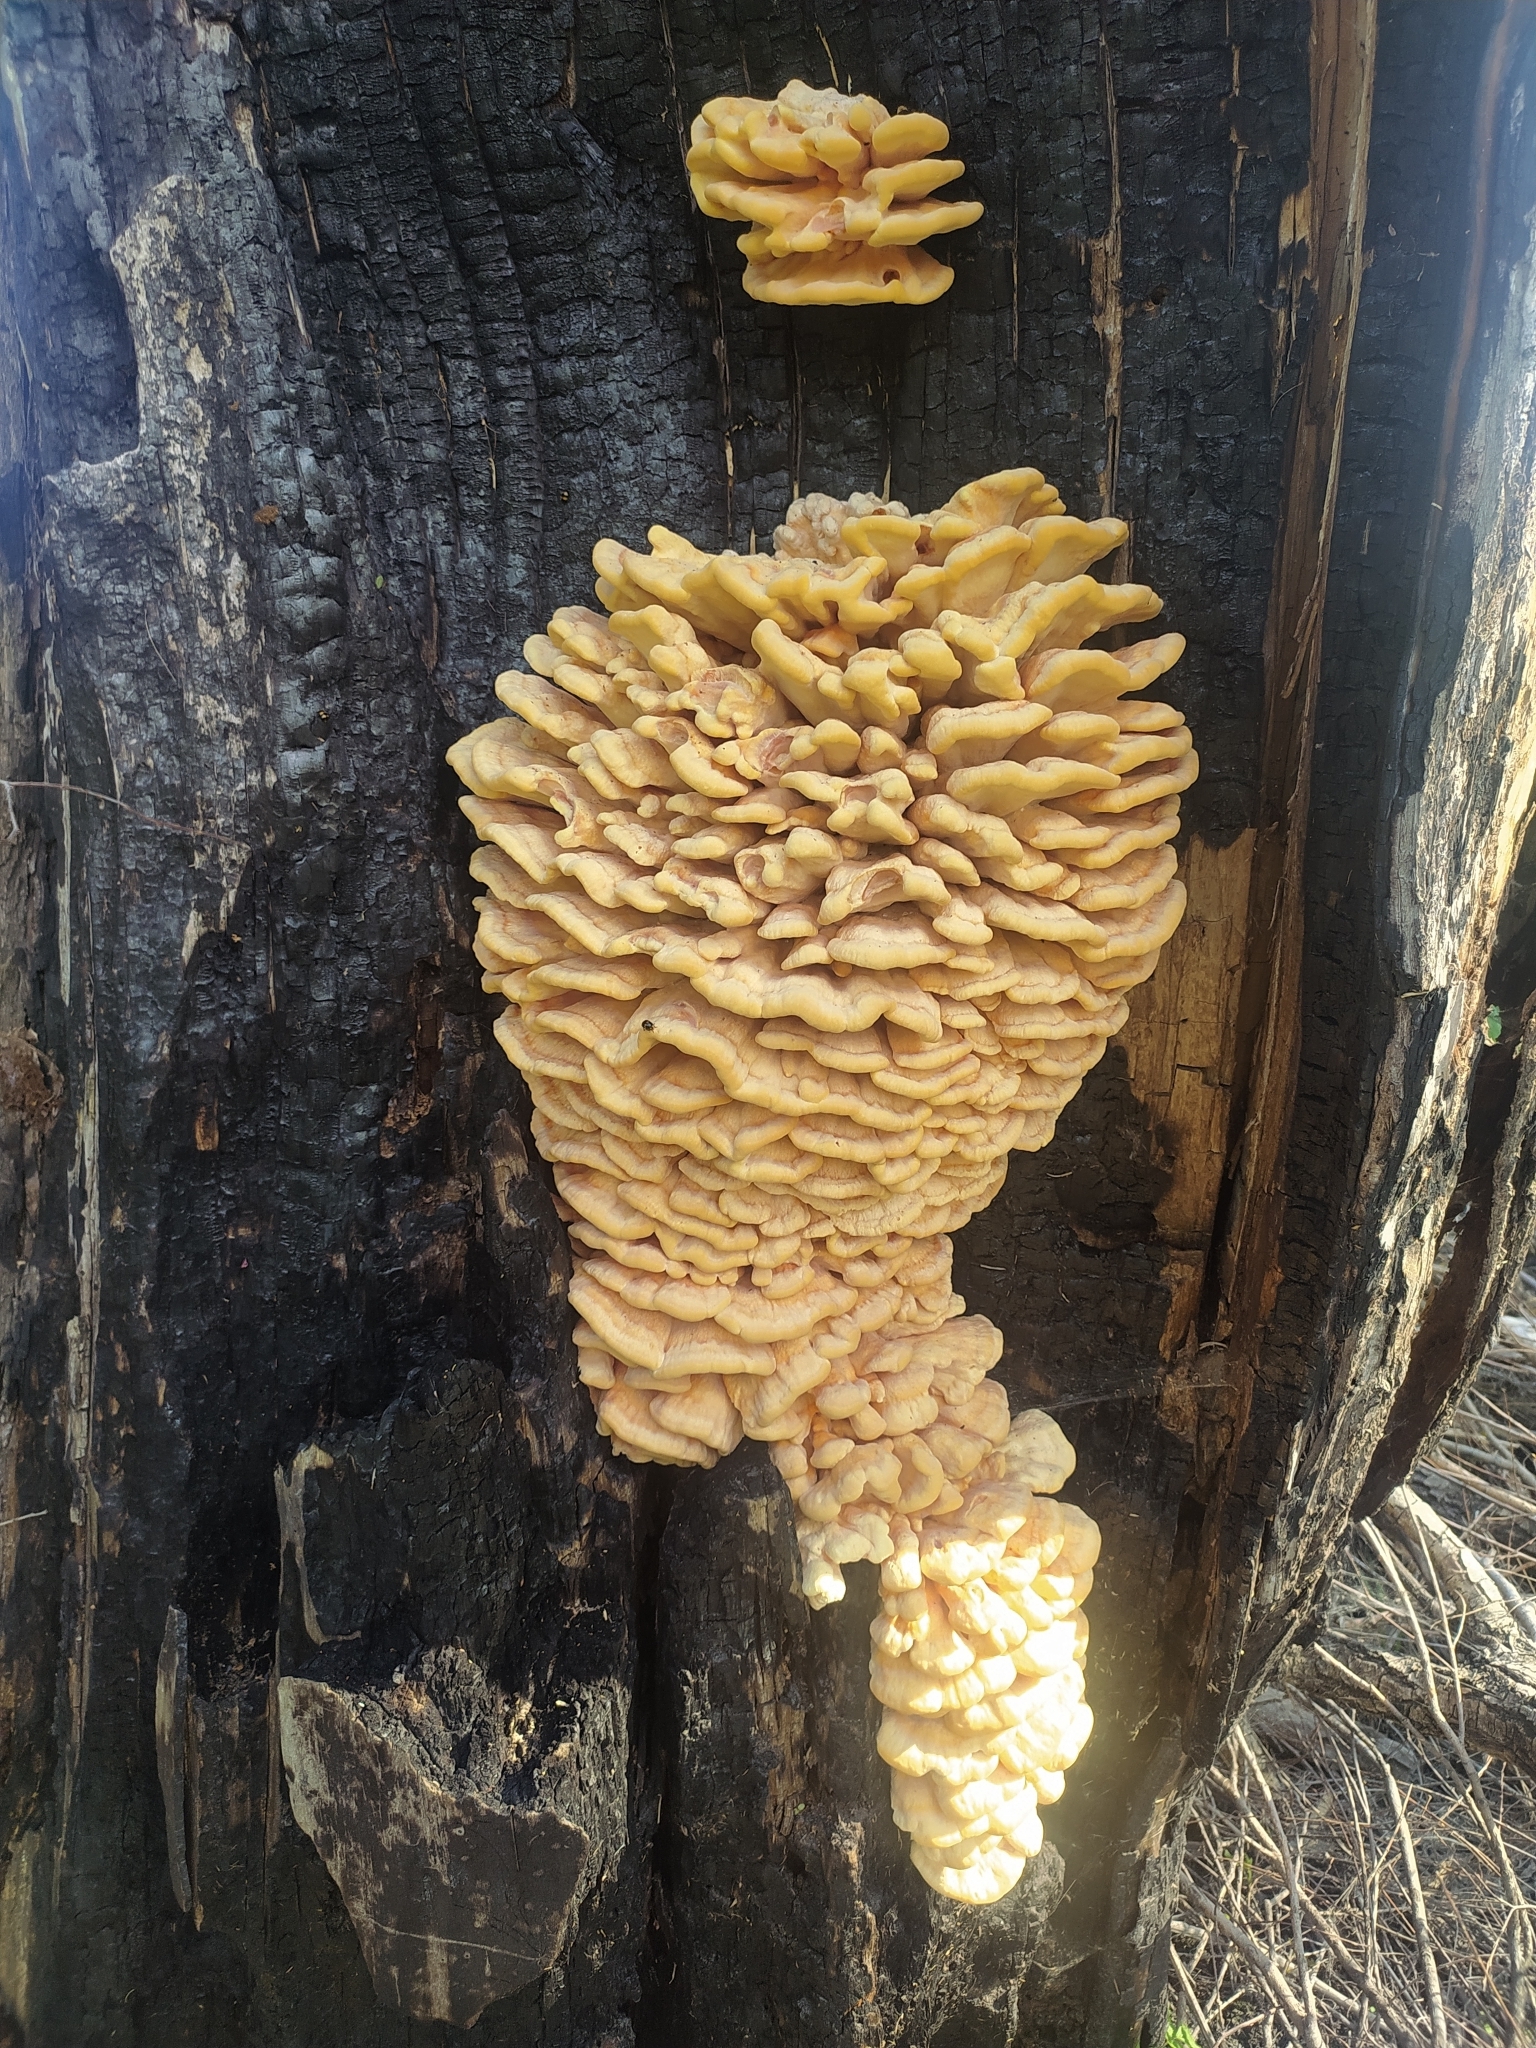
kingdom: Fungi
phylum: Basidiomycota
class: Agaricomycetes
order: Polyporales
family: Laetiporaceae
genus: Laetiporus
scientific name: Laetiporus sulphureus
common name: Chicken of the woods
